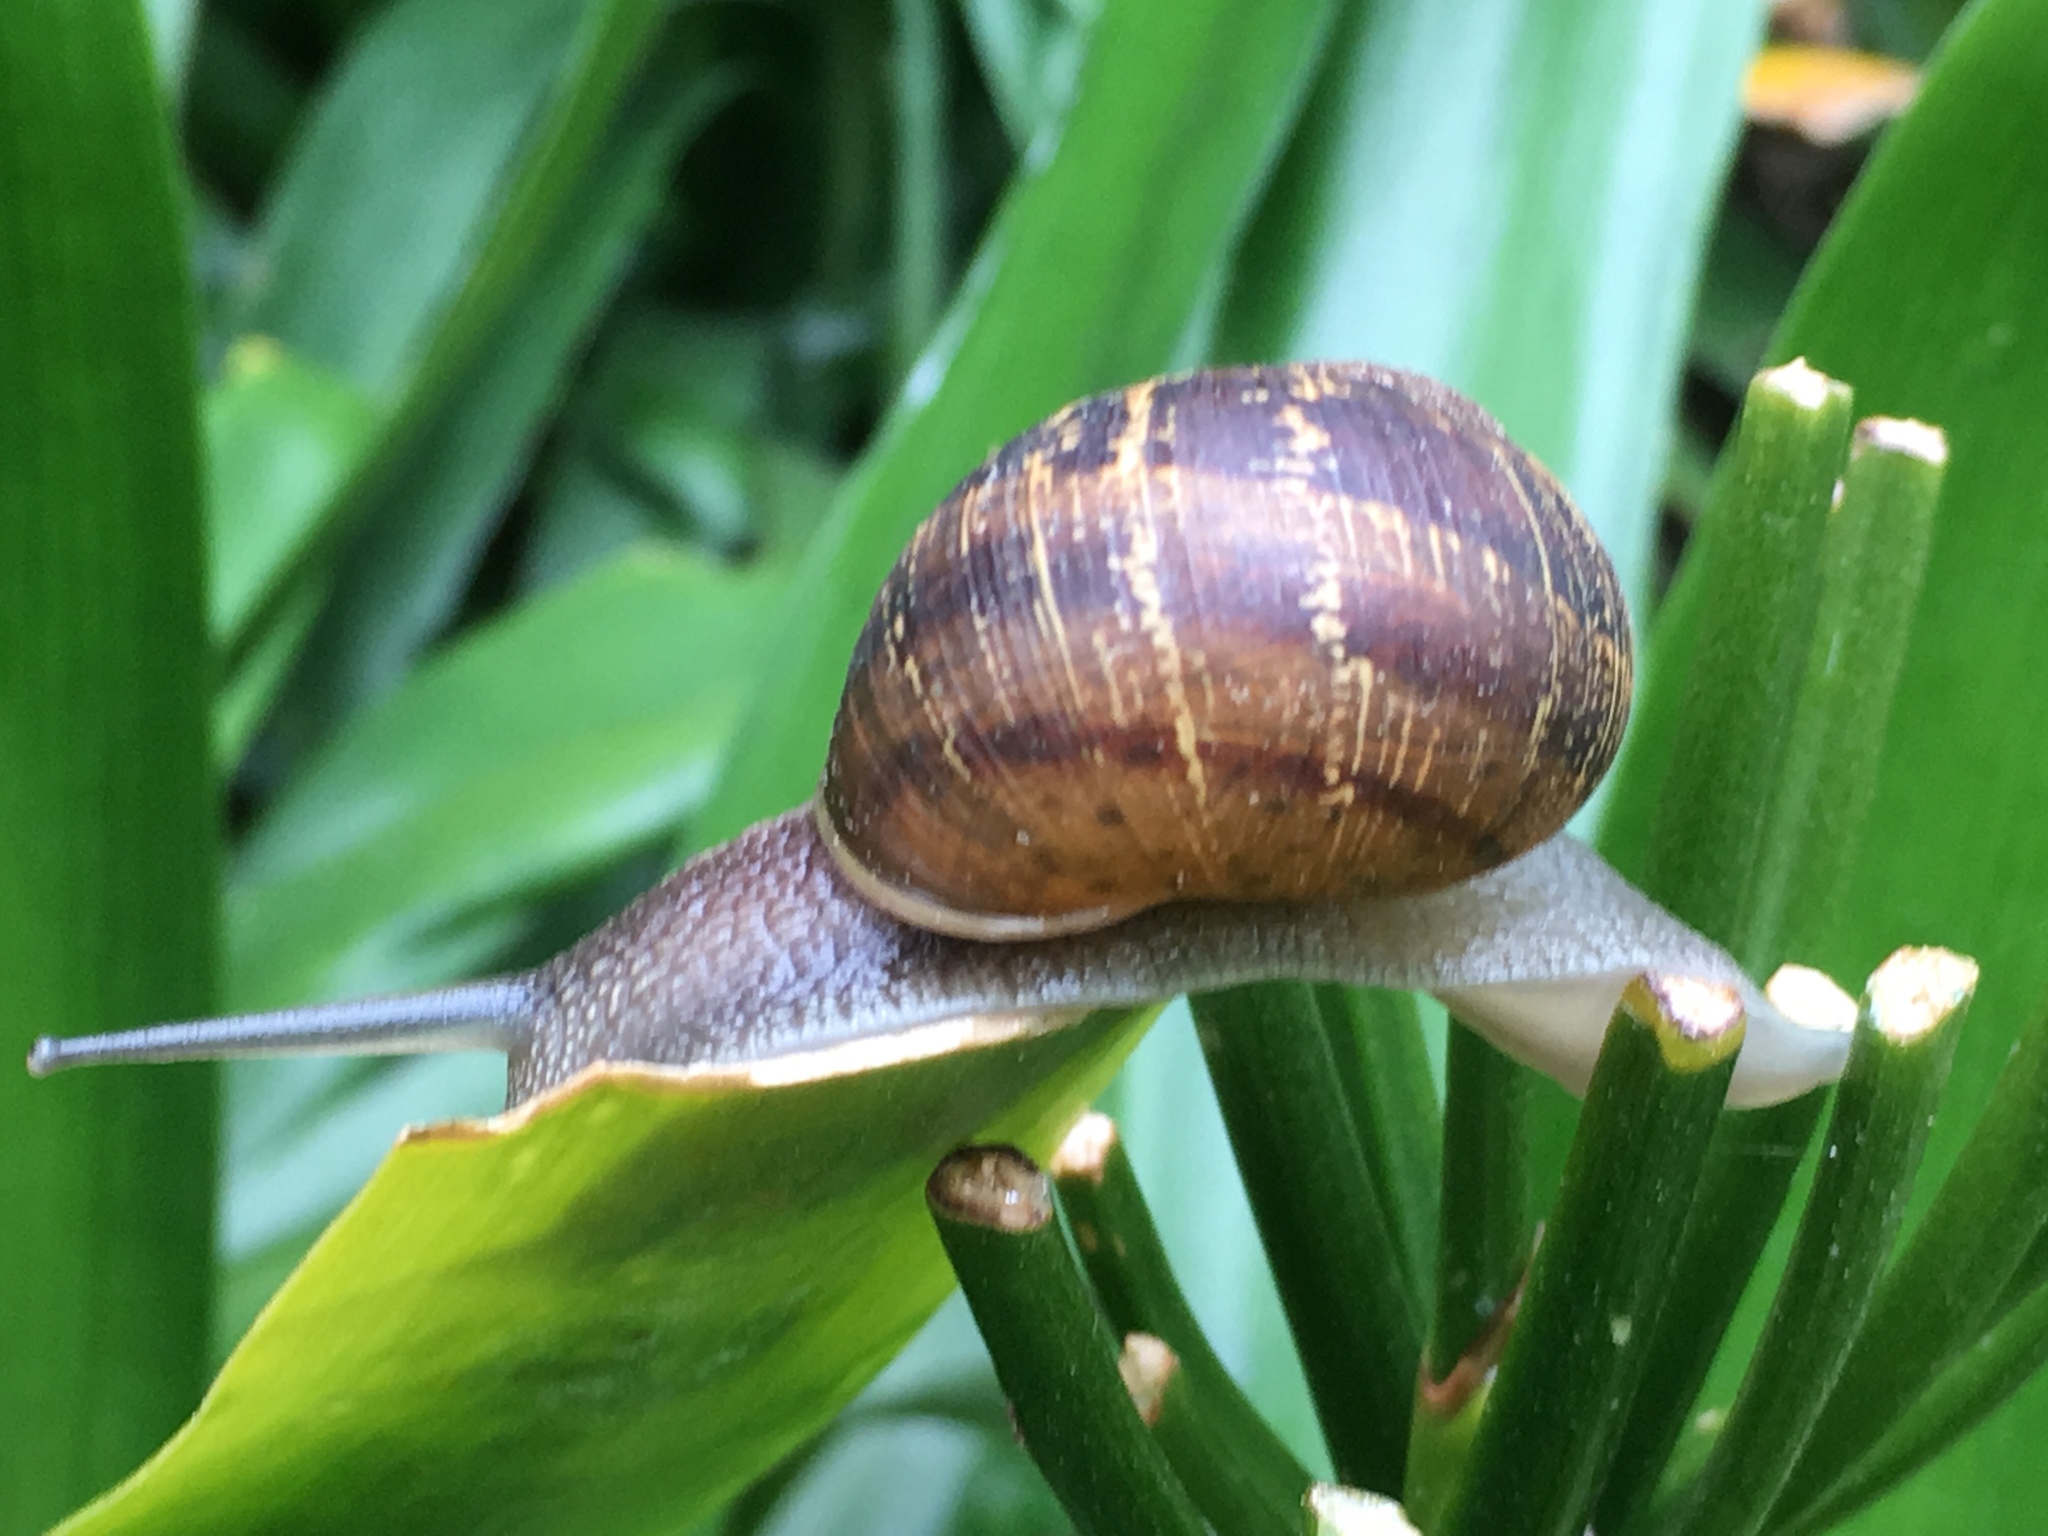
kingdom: Animalia
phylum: Mollusca
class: Gastropoda
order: Stylommatophora
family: Helicidae
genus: Cornu
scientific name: Cornu aspersum
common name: Brown garden snail
